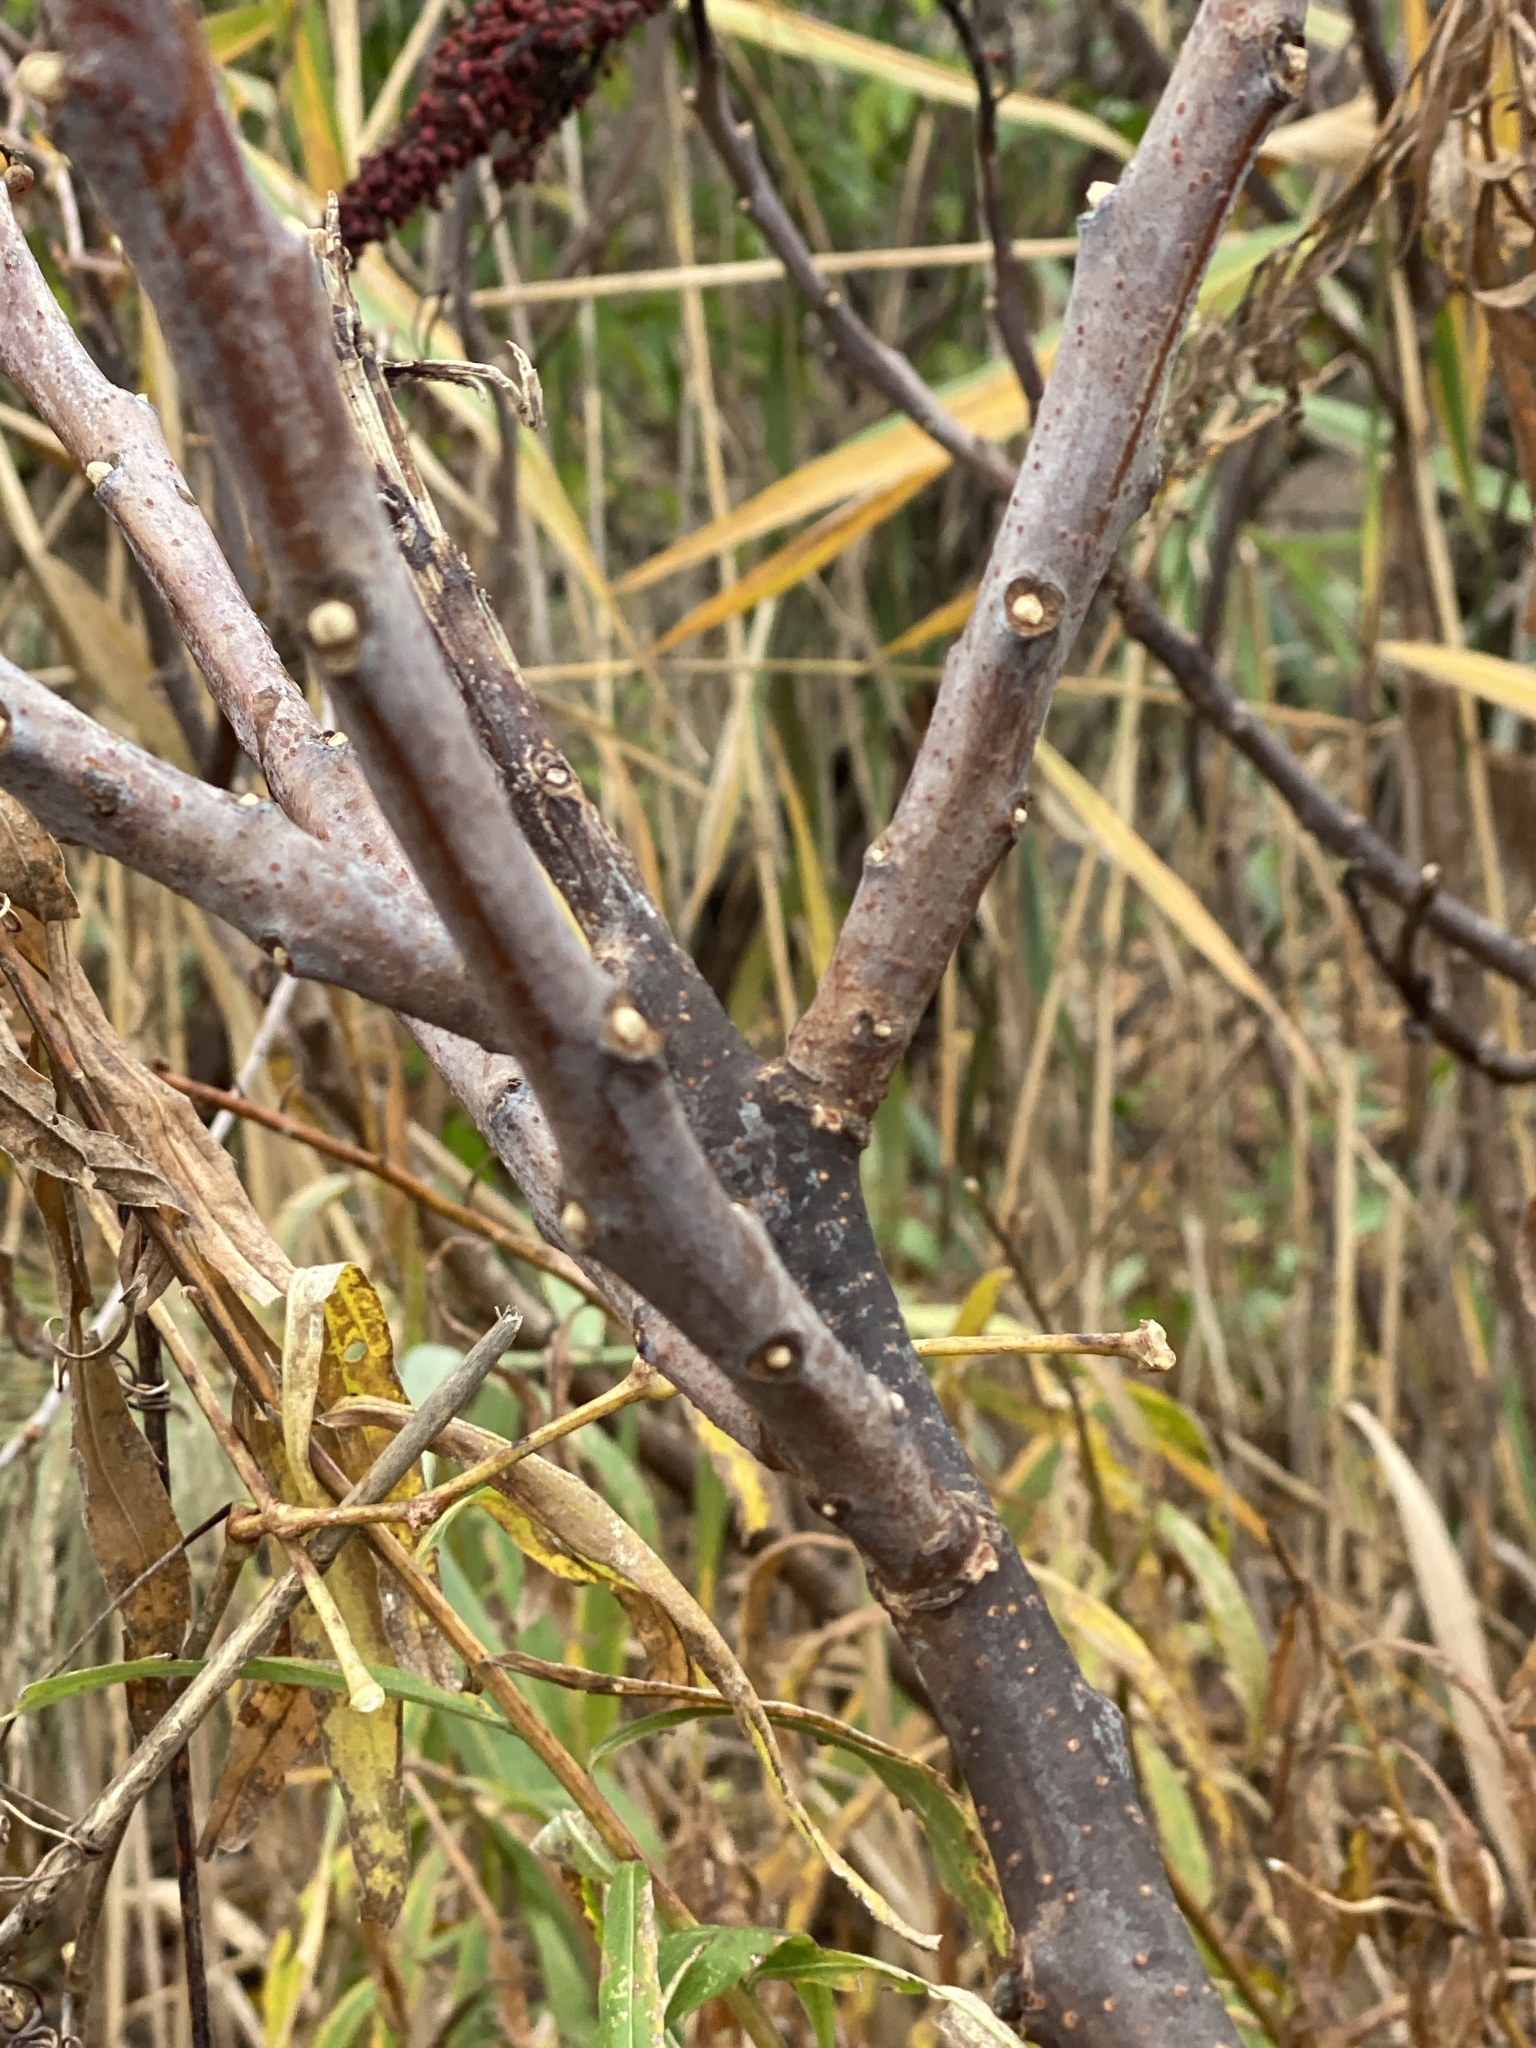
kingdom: Plantae
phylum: Tracheophyta
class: Magnoliopsida
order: Sapindales
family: Anacardiaceae
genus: Rhus
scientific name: Rhus glabra
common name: Scarlet sumac
